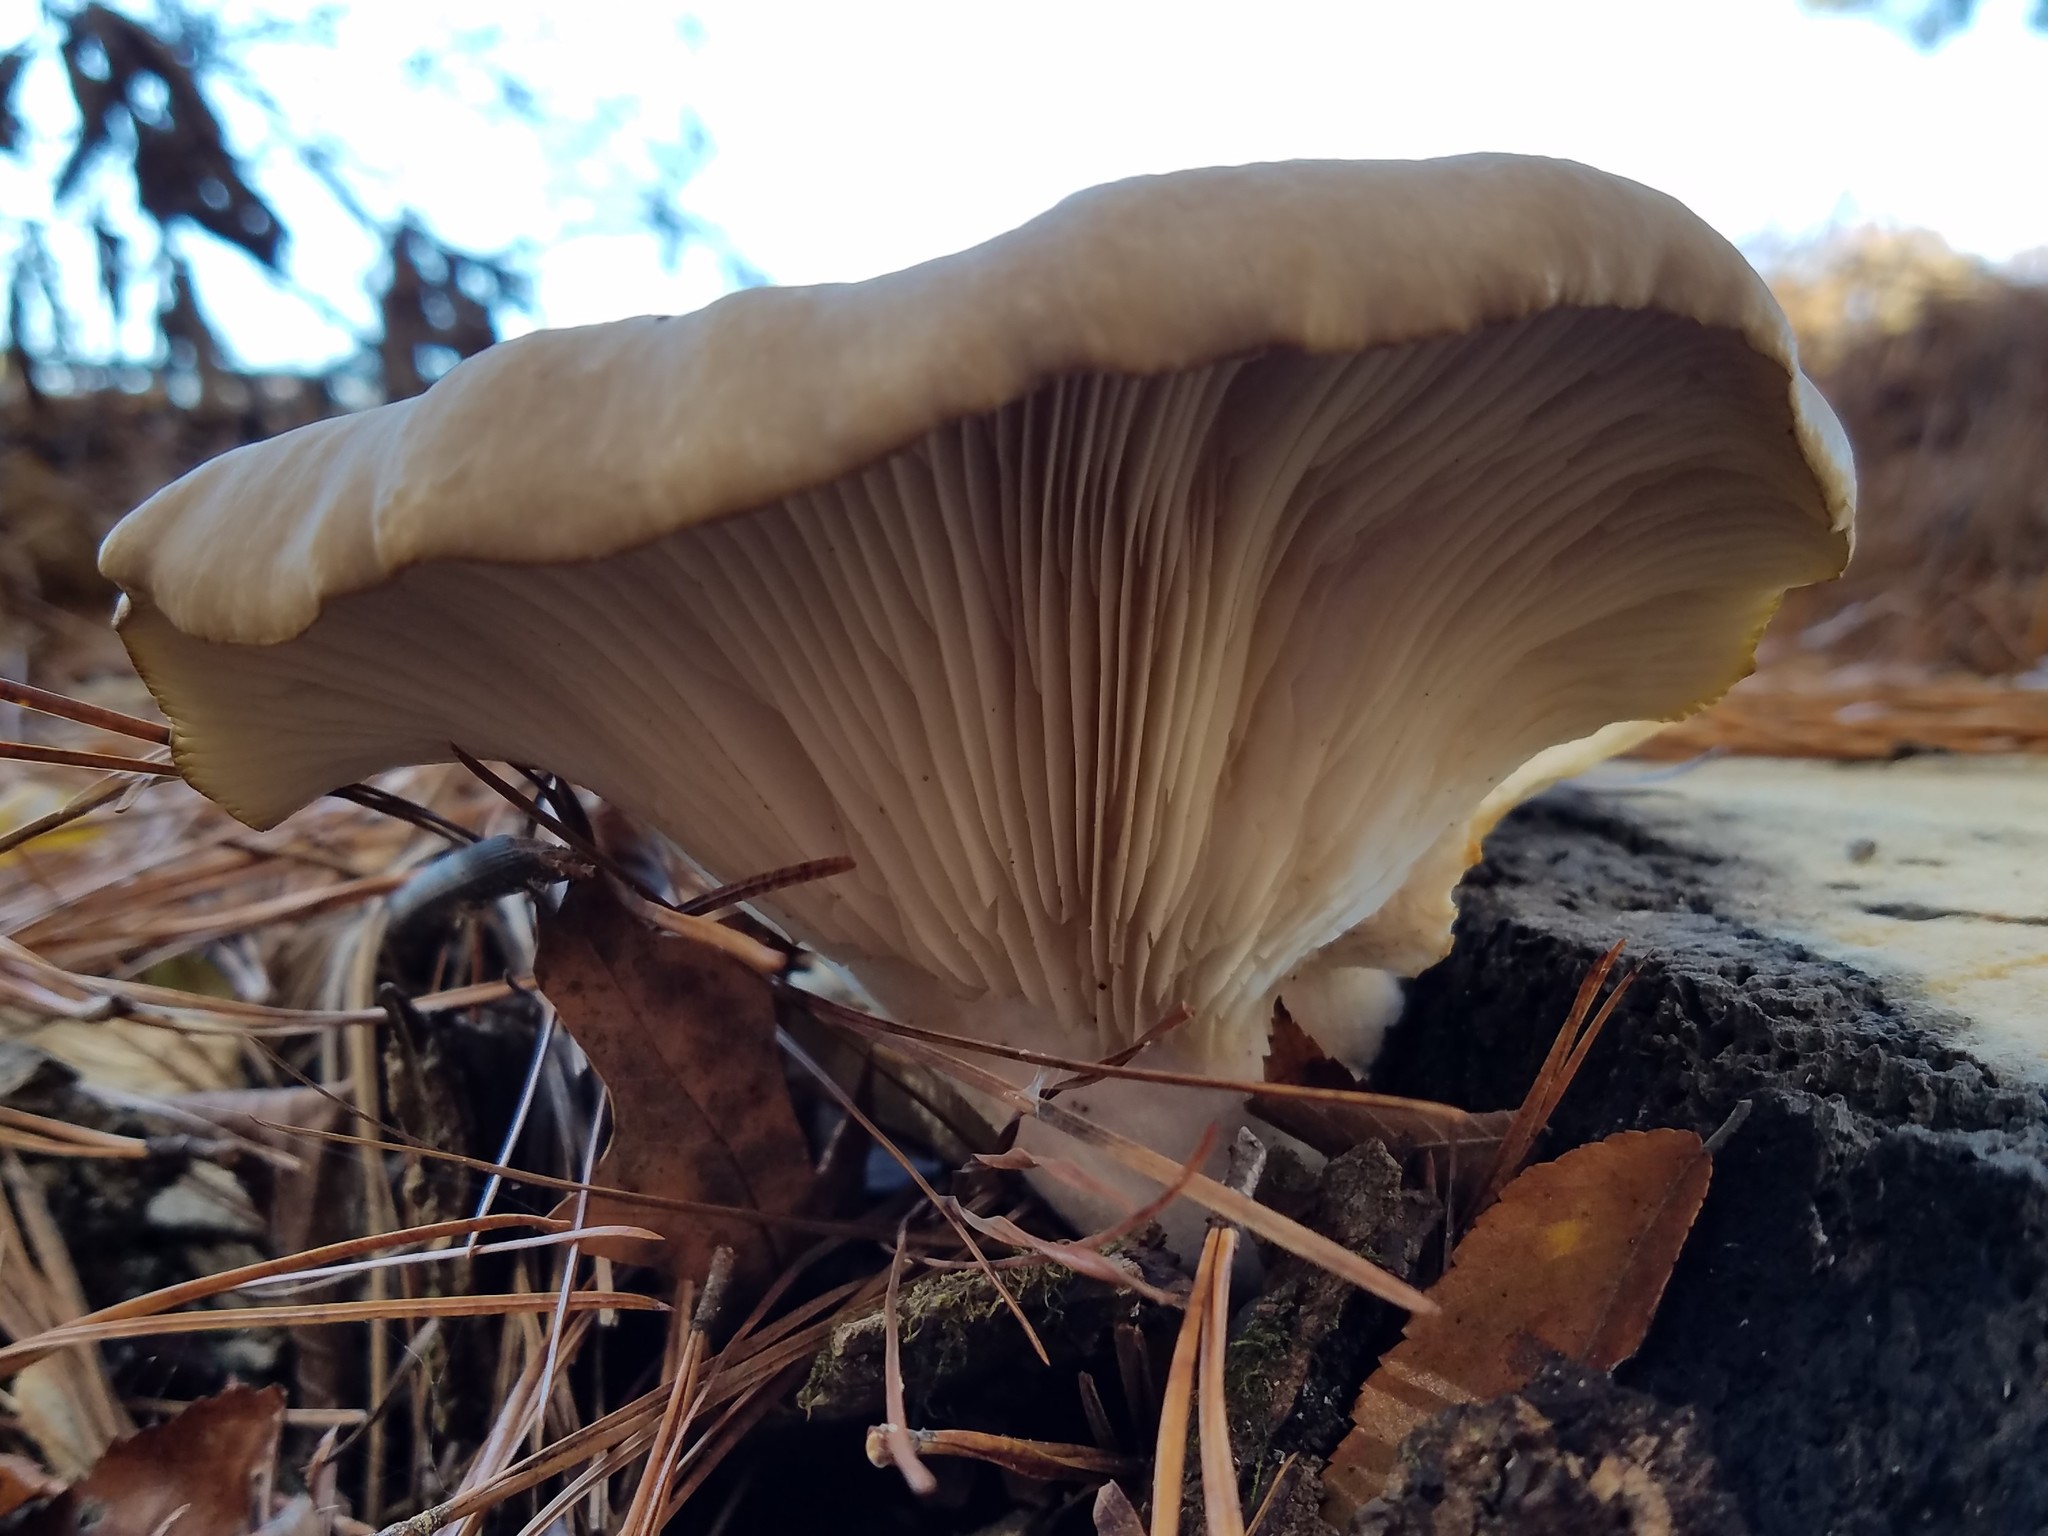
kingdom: Fungi
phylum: Basidiomycota
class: Agaricomycetes
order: Agaricales
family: Pleurotaceae
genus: Pleurotus
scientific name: Pleurotus ostreatus
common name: Oyster mushroom
